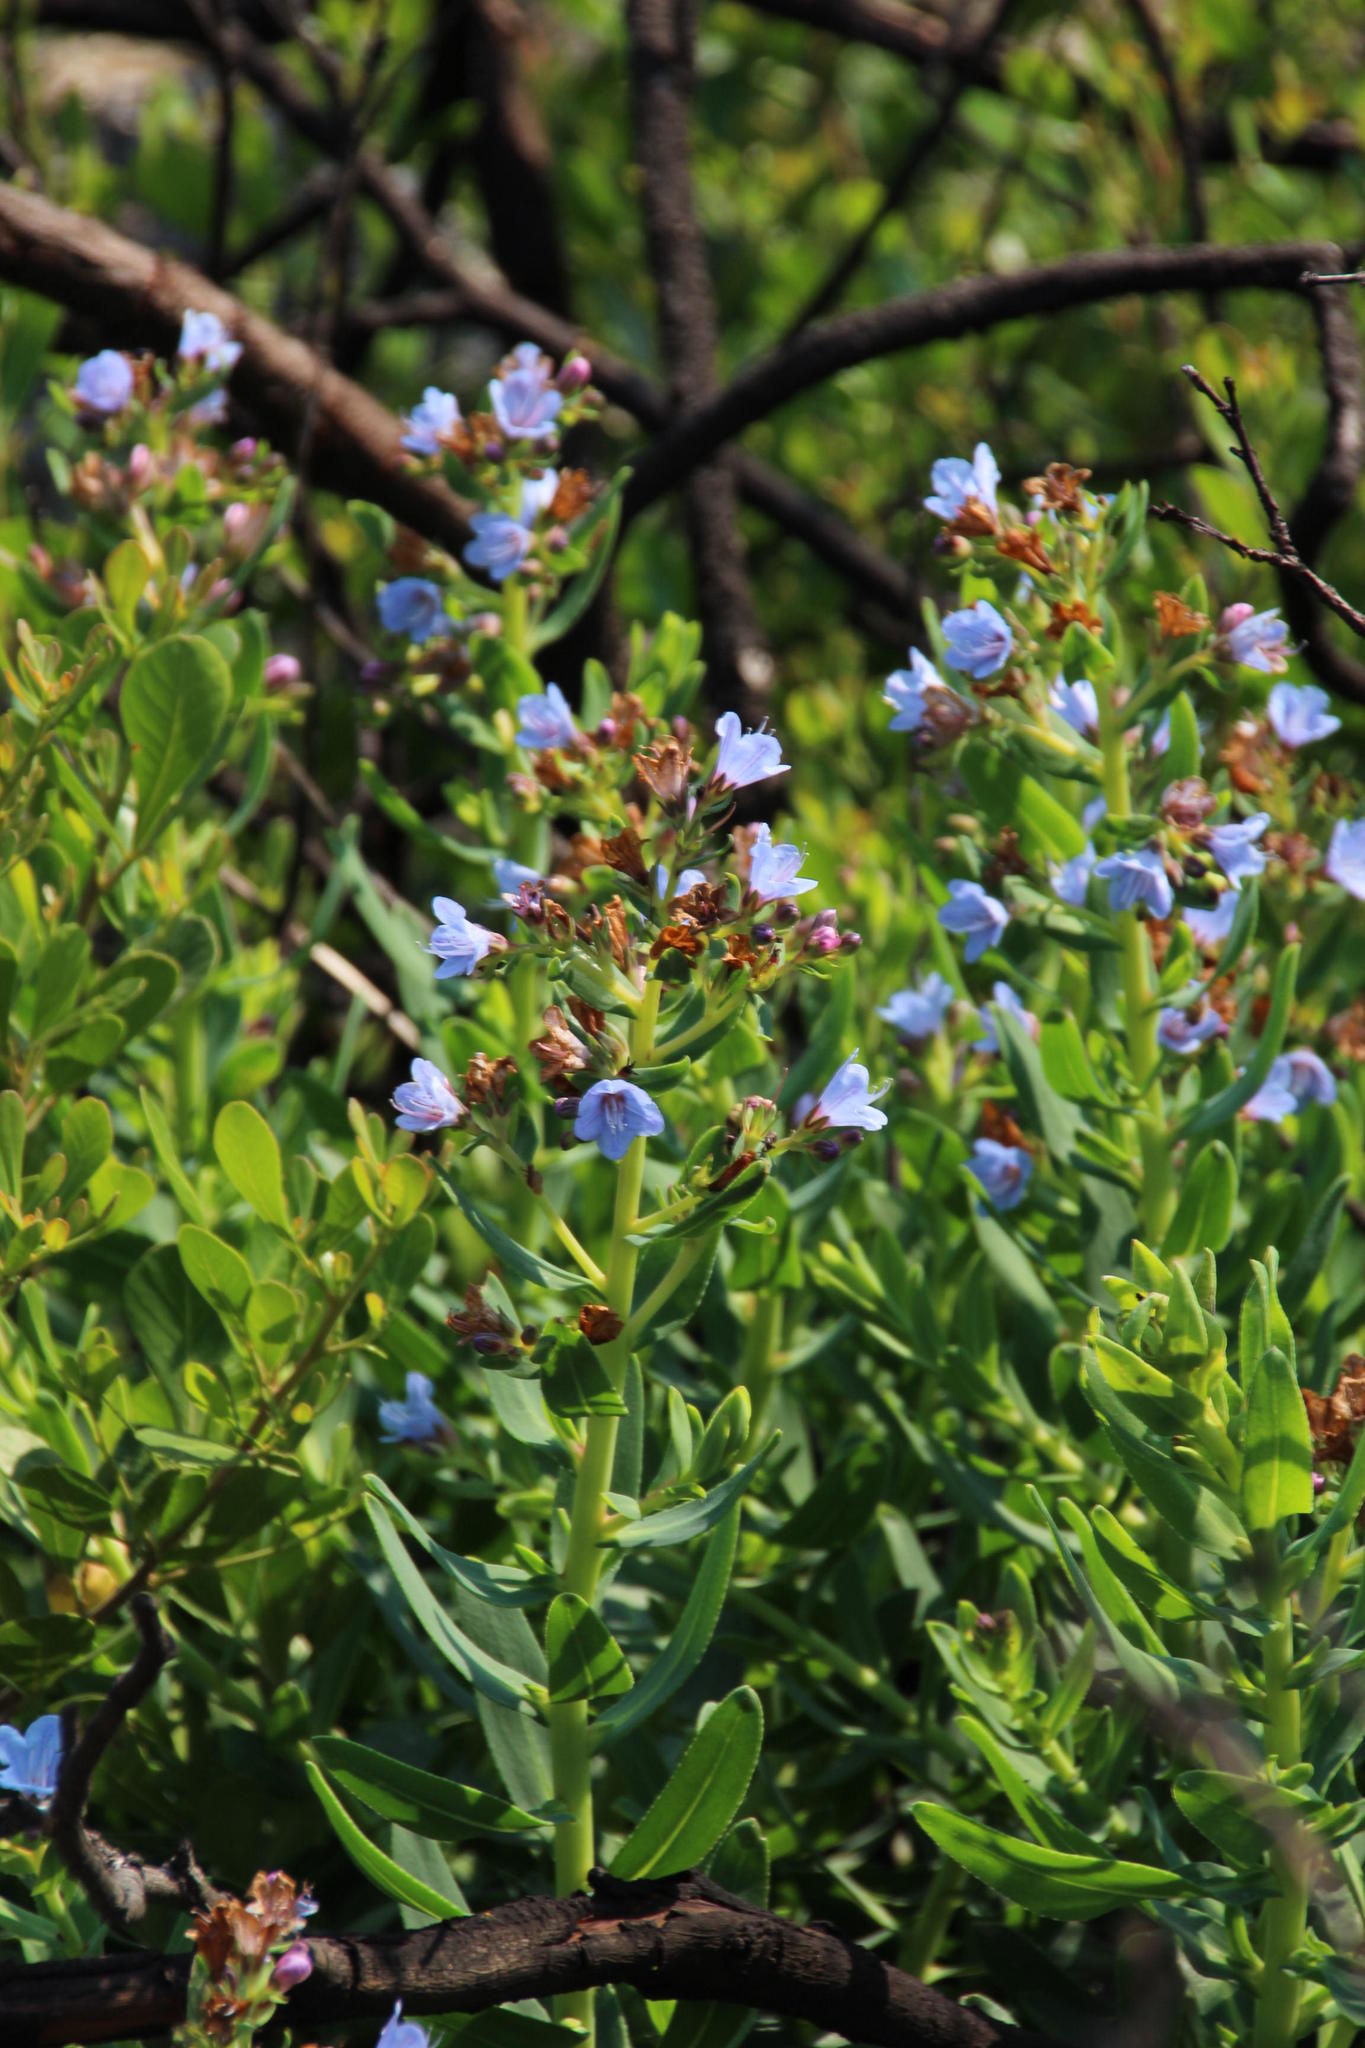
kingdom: Plantae
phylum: Tracheophyta
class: Magnoliopsida
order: Boraginales
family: Boraginaceae
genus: Lobostemon
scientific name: Lobostemon glaucophyllus
